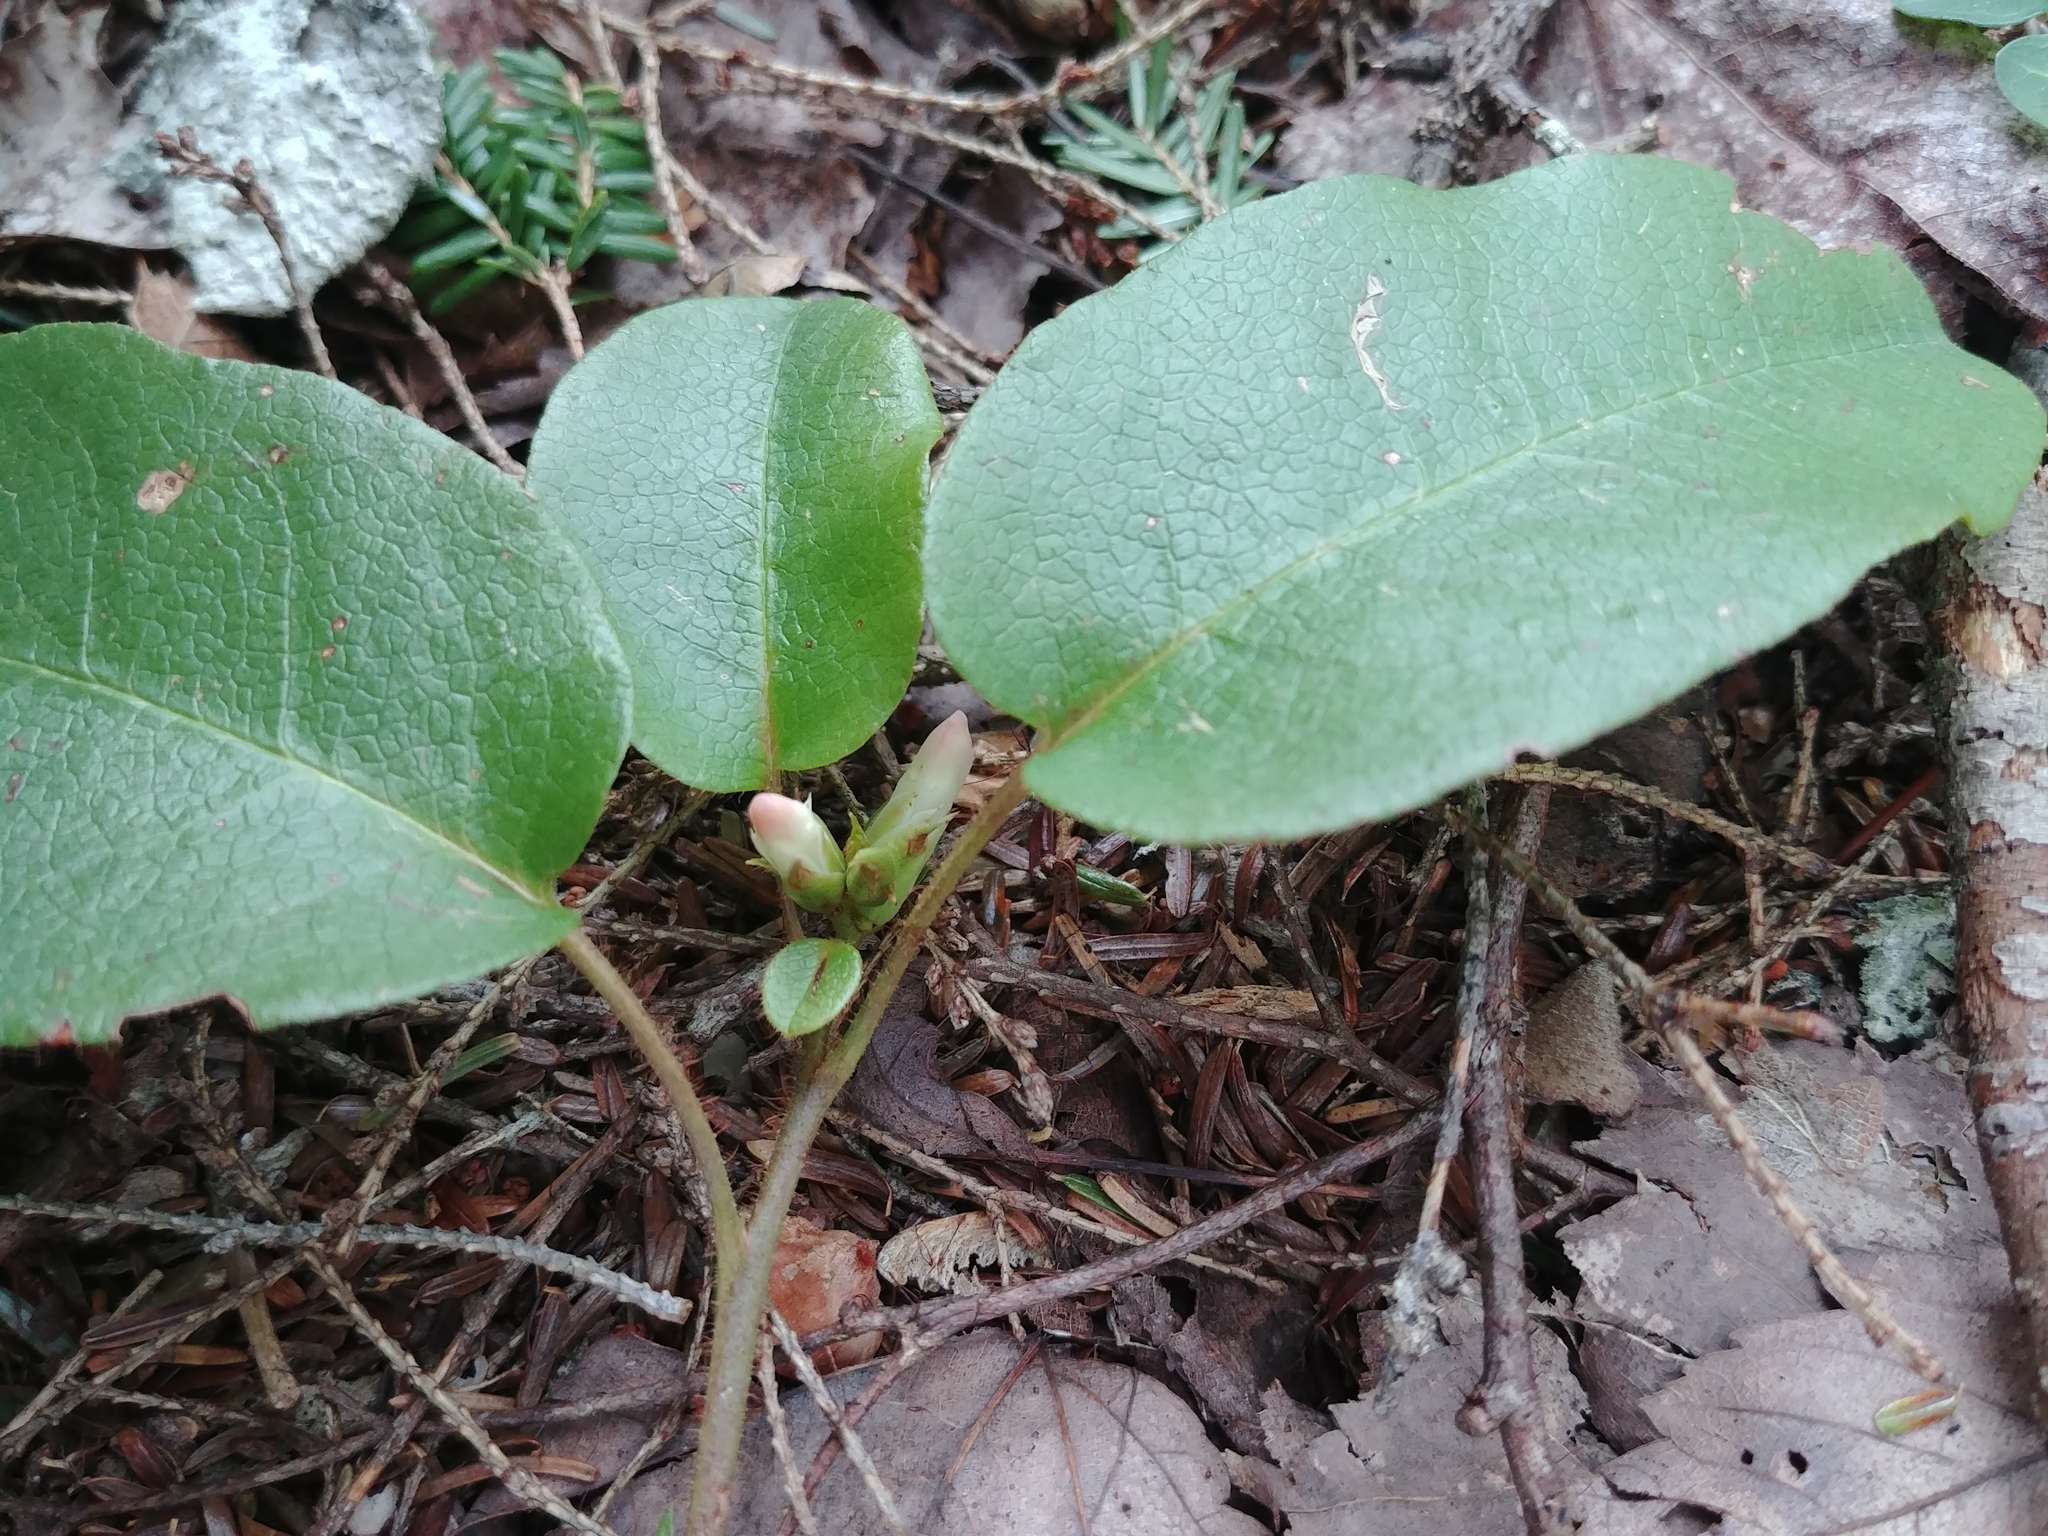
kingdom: Plantae
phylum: Tracheophyta
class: Magnoliopsida
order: Ericales
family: Ericaceae
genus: Epigaea
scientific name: Epigaea repens
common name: Gravelroot
